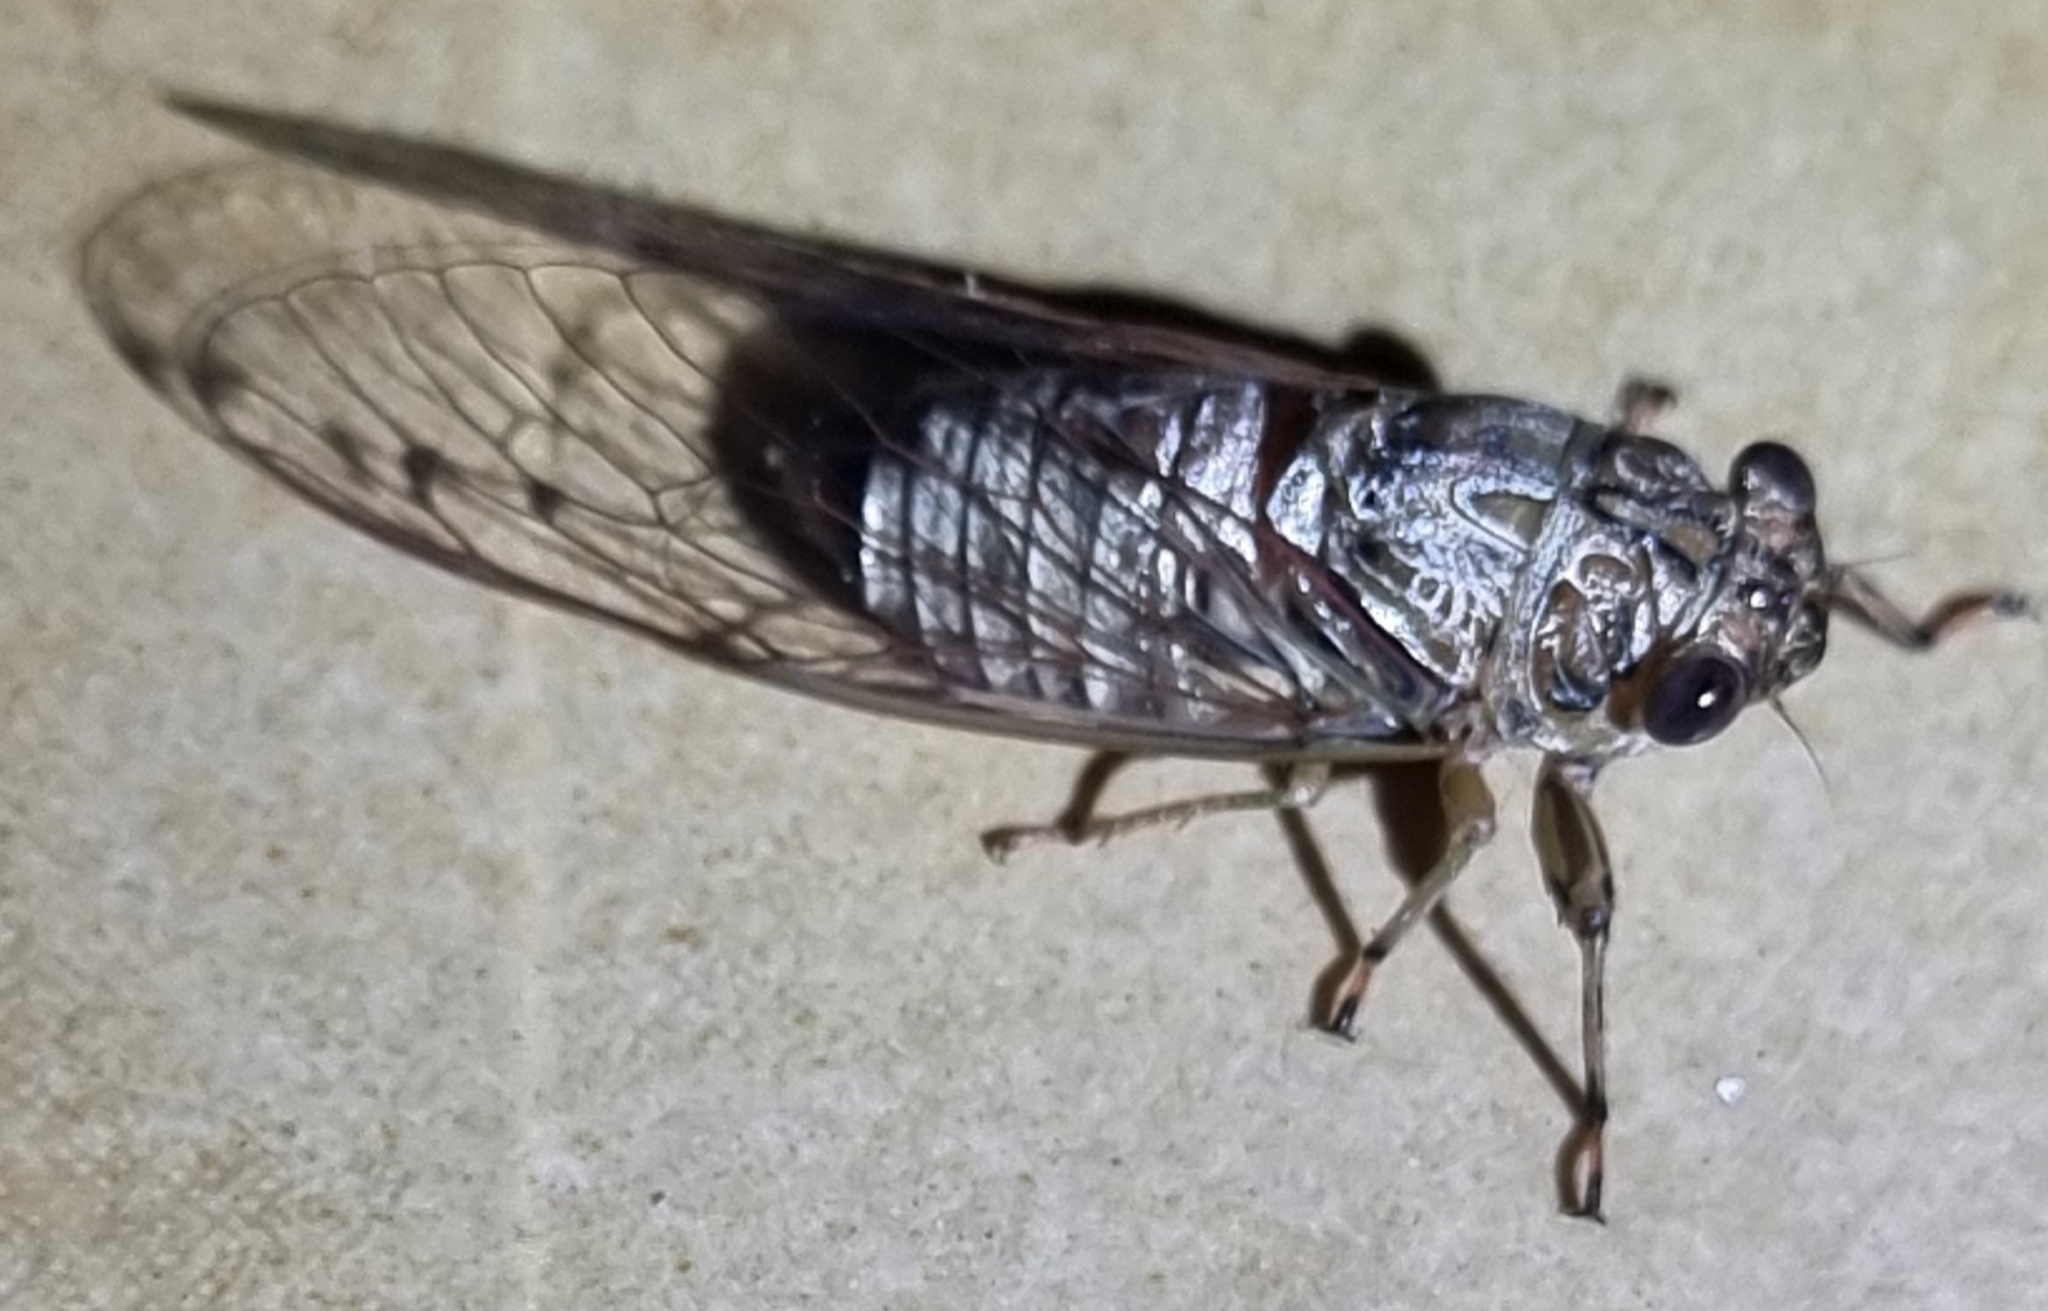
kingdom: Animalia
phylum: Arthropoda
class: Insecta
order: Hemiptera
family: Cicadidae
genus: Tamasa
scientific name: Tamasa tristigma
